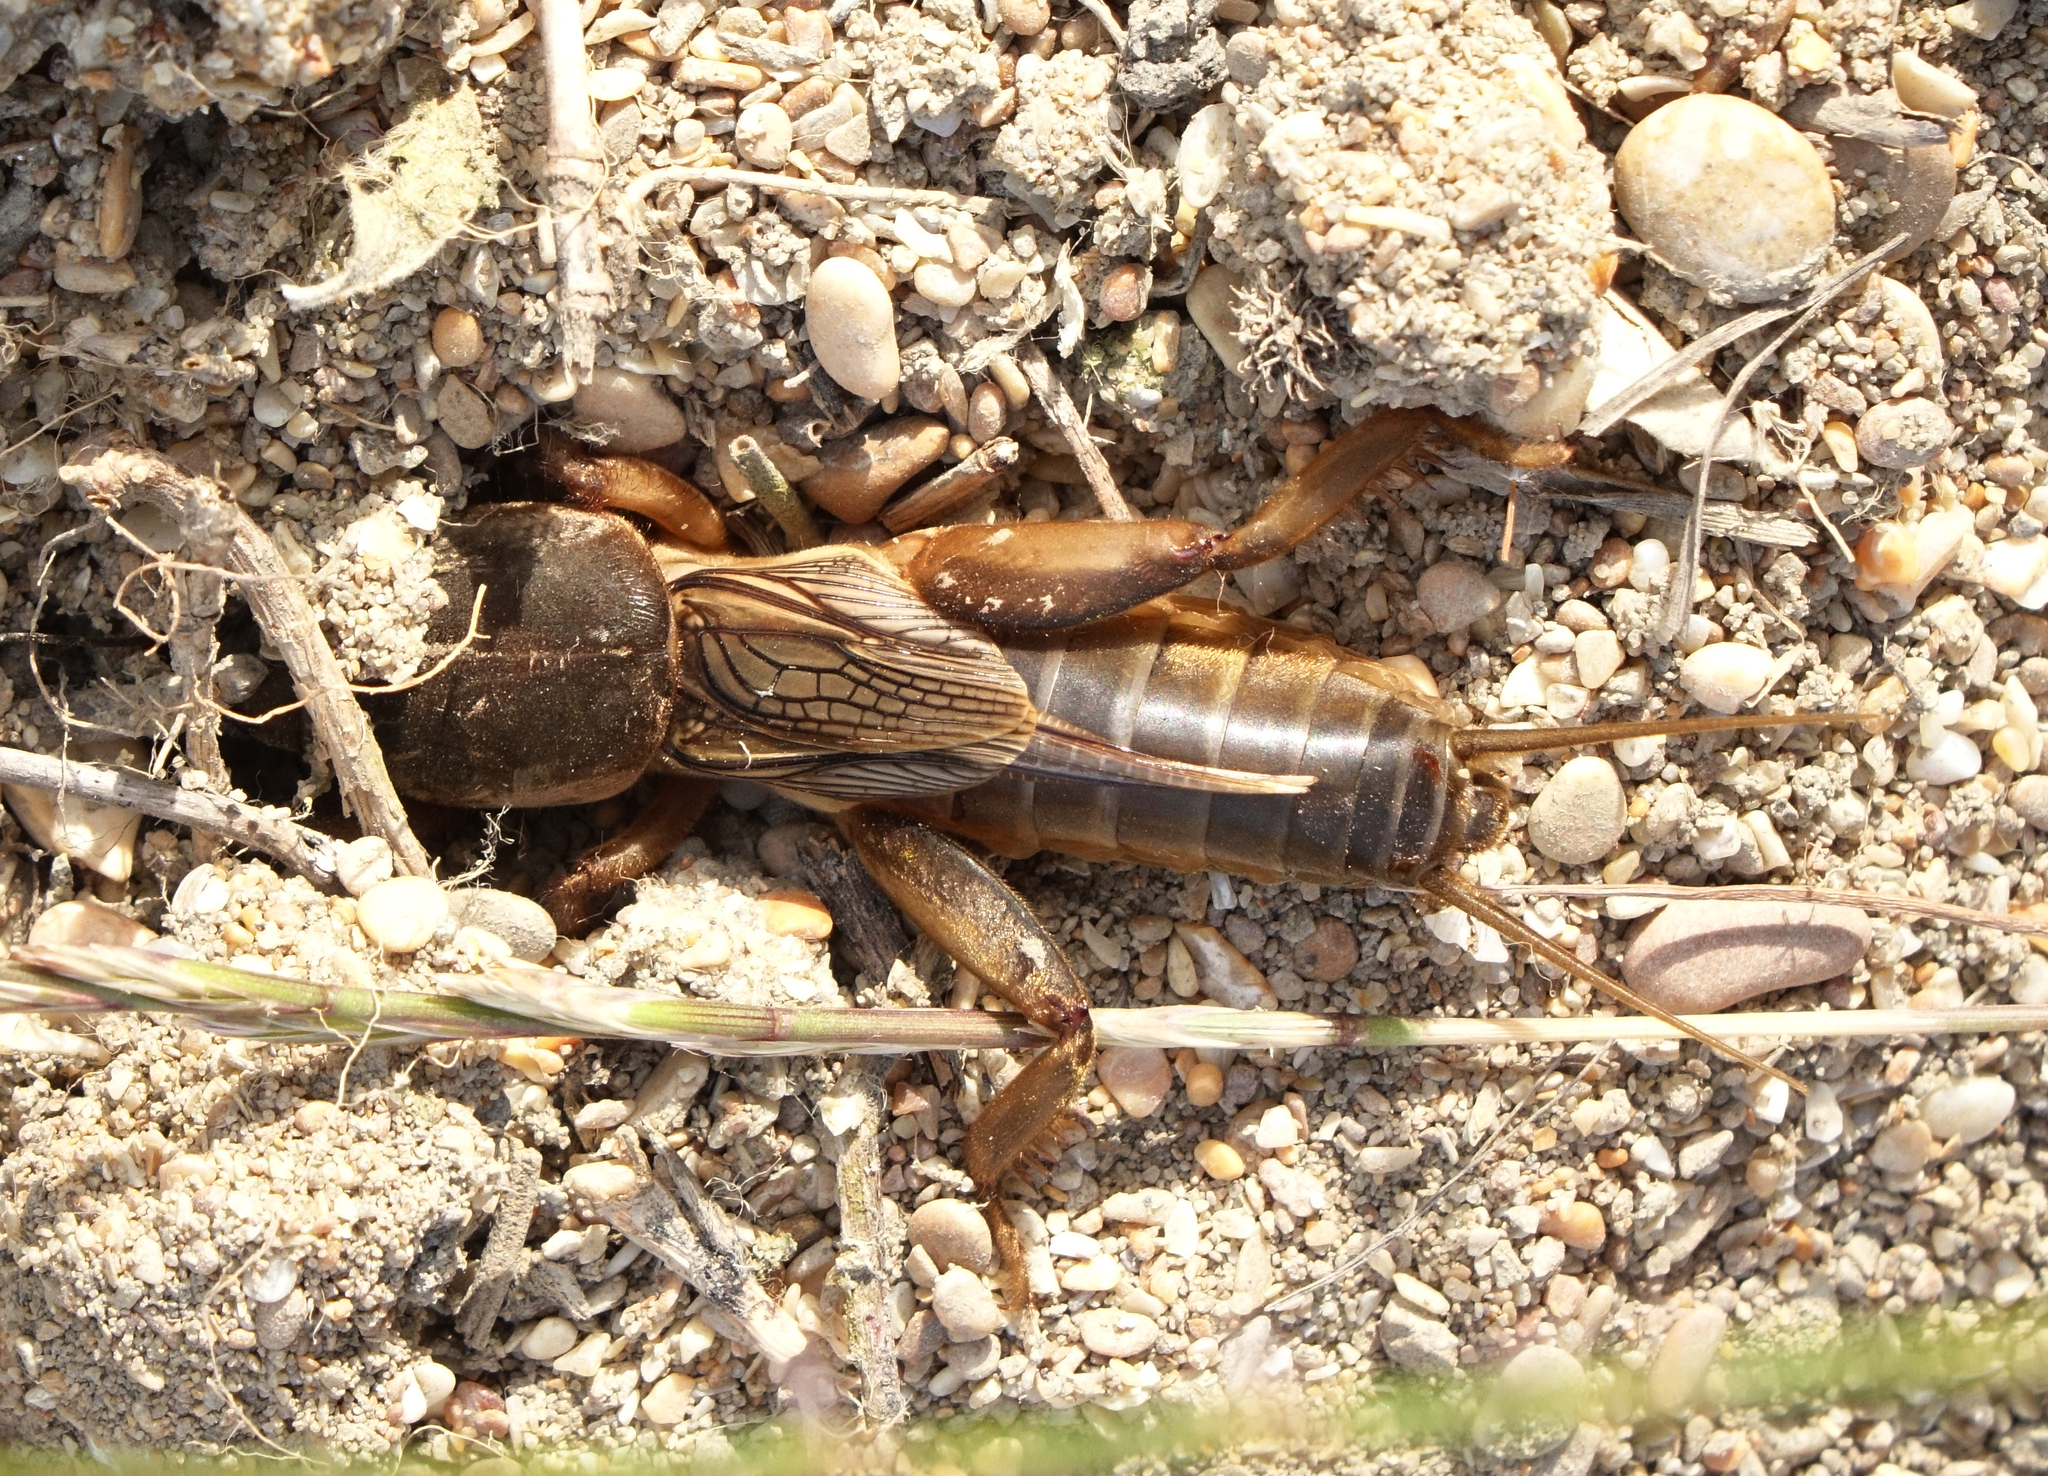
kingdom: Animalia
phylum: Arthropoda
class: Insecta
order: Orthoptera
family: Gryllotalpidae
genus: Gryllotalpa
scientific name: Gryllotalpa gryllotalpa
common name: European mole cricket
